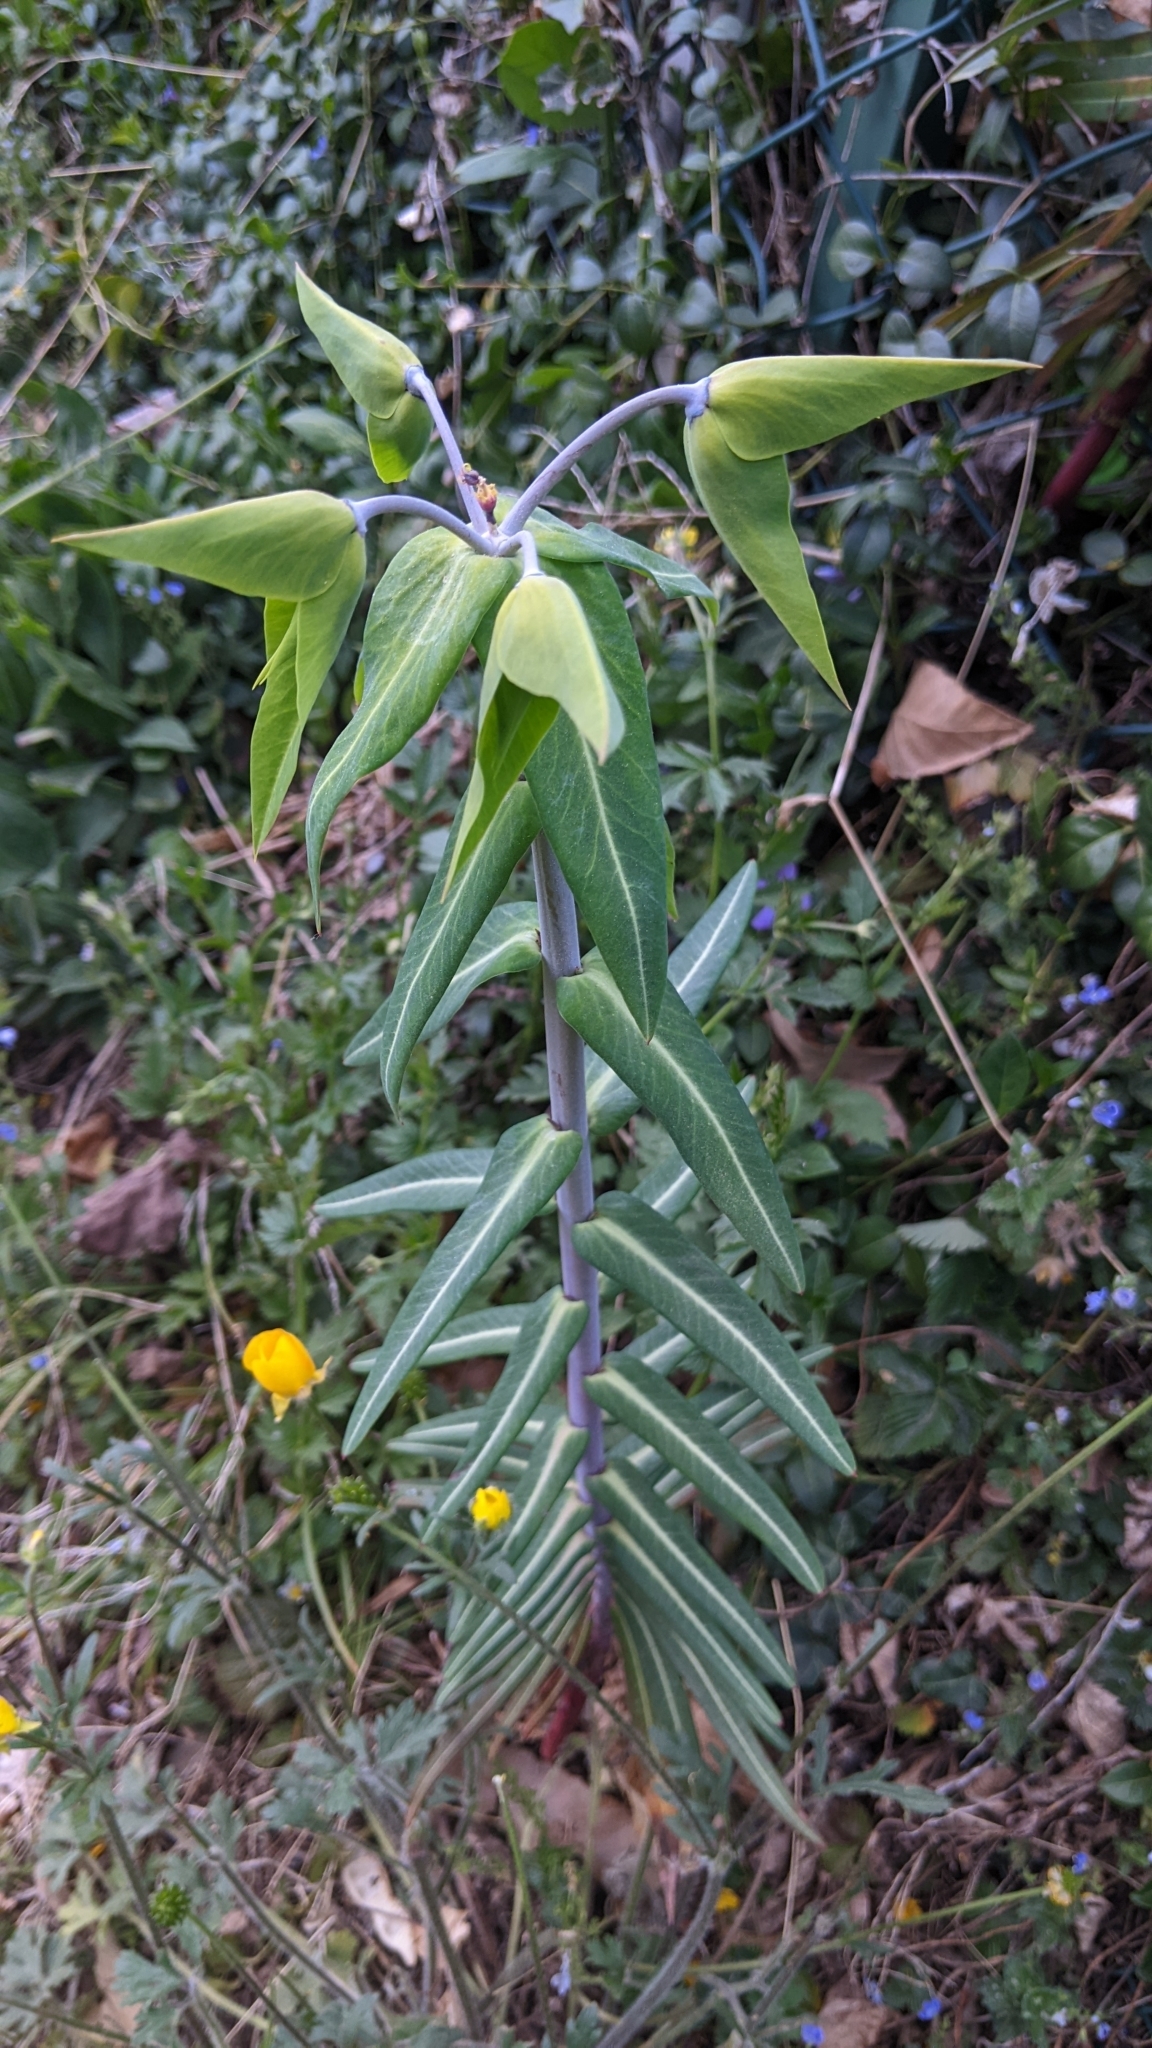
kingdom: Plantae
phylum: Tracheophyta
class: Magnoliopsida
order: Malpighiales
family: Euphorbiaceae
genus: Euphorbia
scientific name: Euphorbia lathyris
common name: Caper spurge
